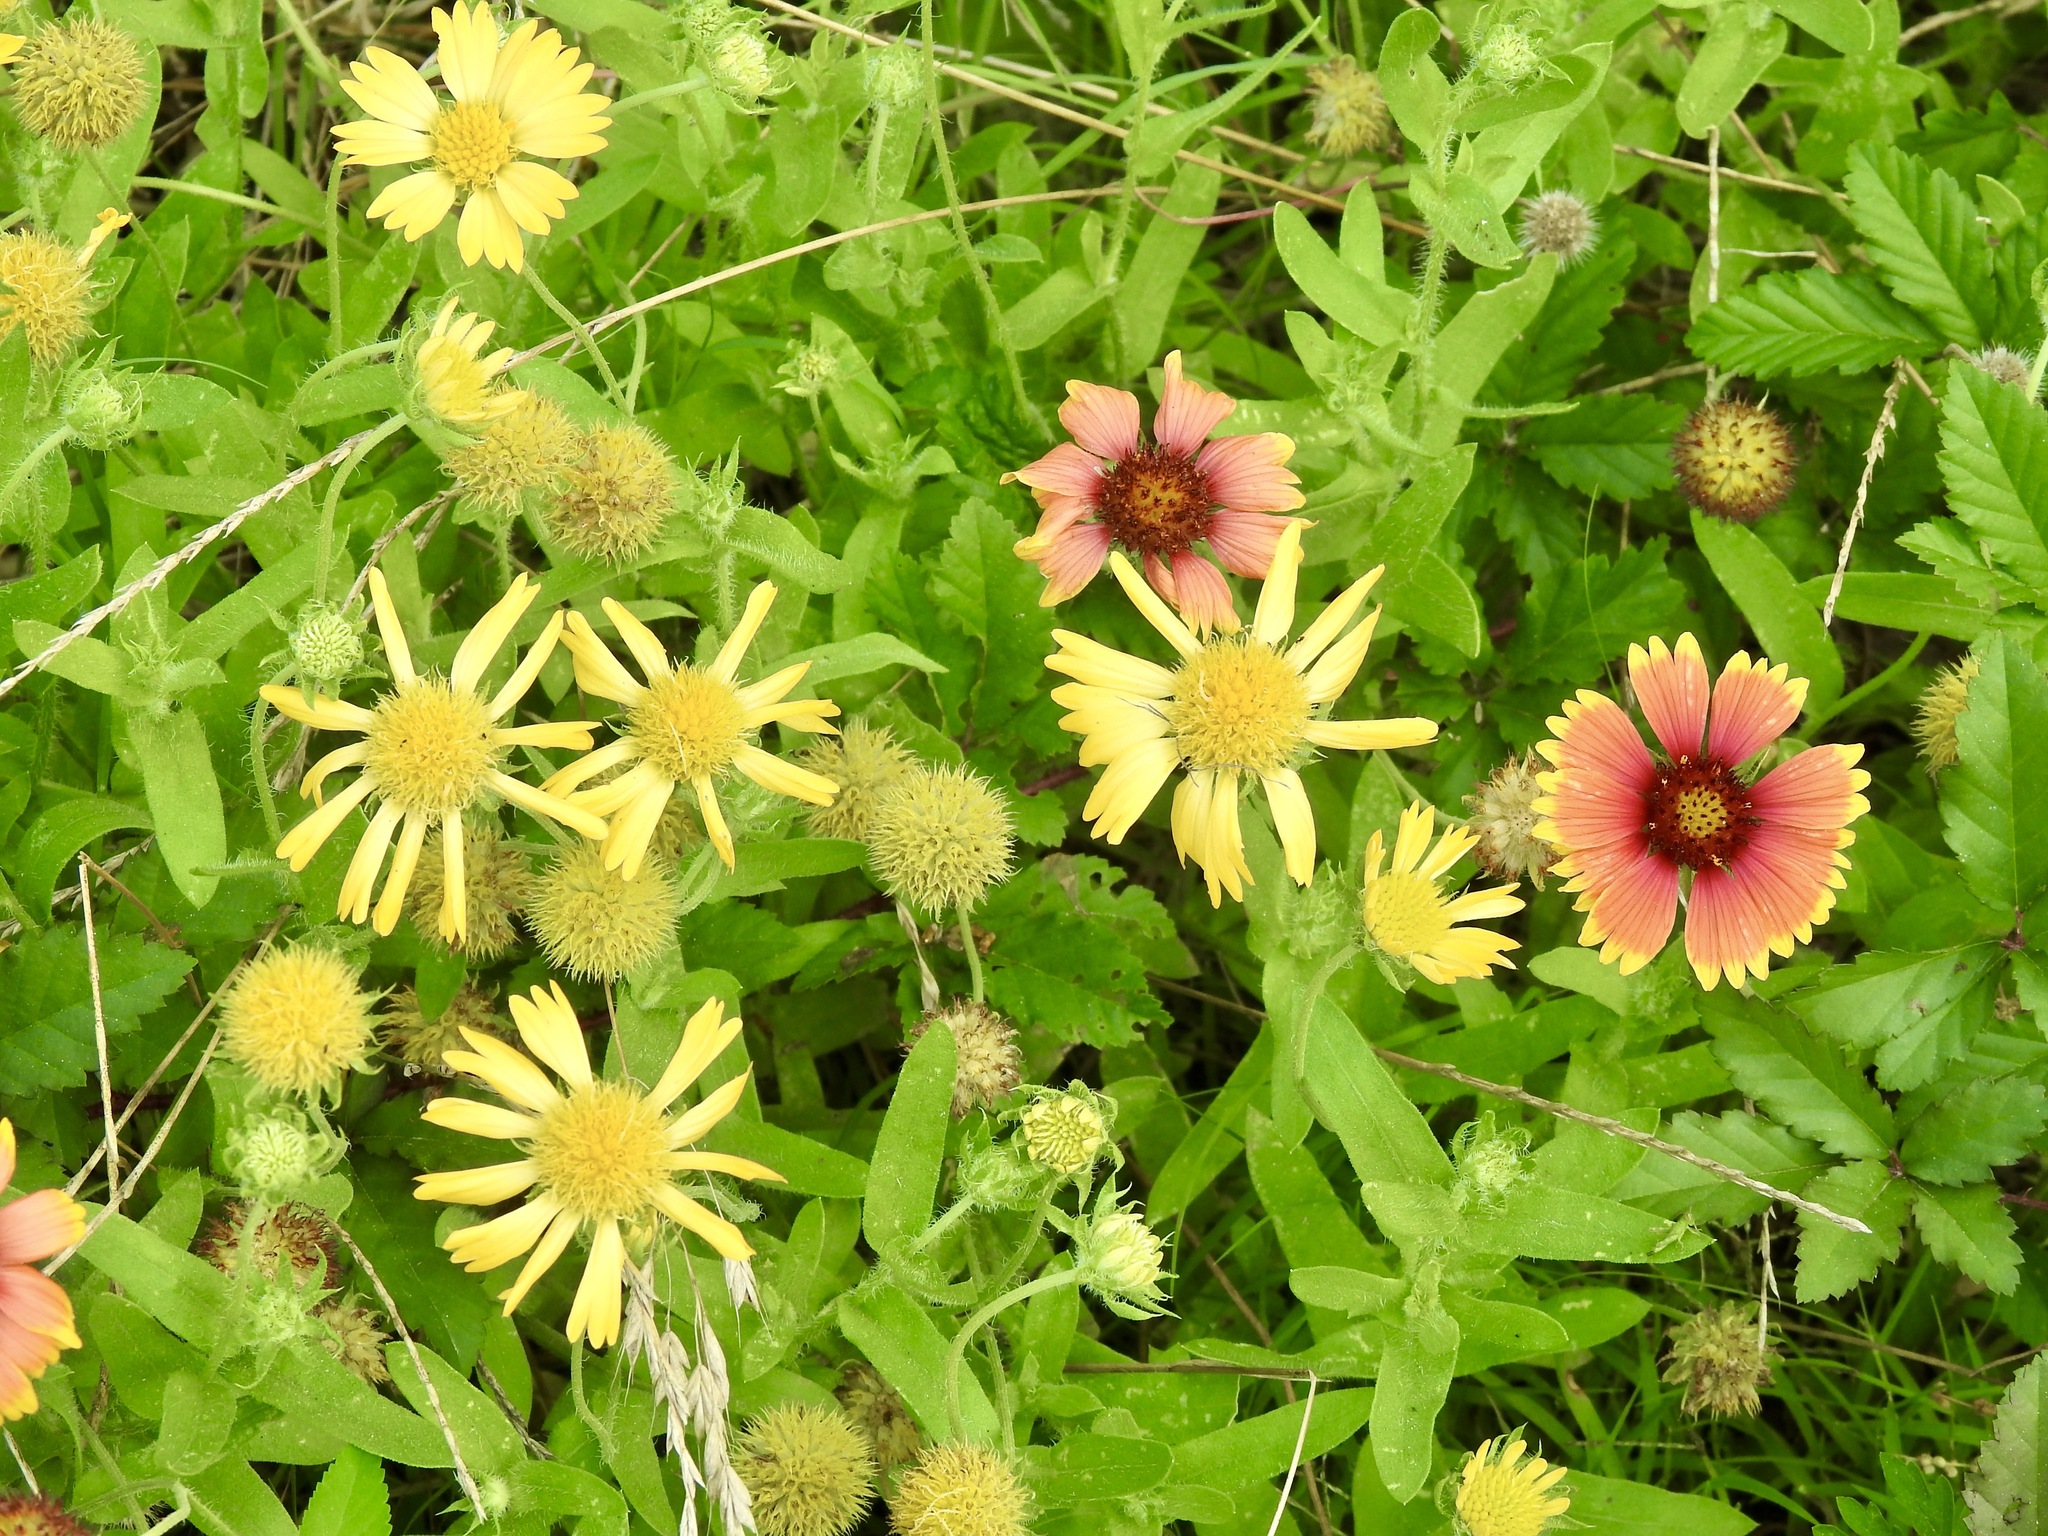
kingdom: Plantae
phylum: Tracheophyta
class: Magnoliopsida
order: Asterales
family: Asteraceae
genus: Gaillardia
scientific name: Gaillardia pulchella
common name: Firewheel
